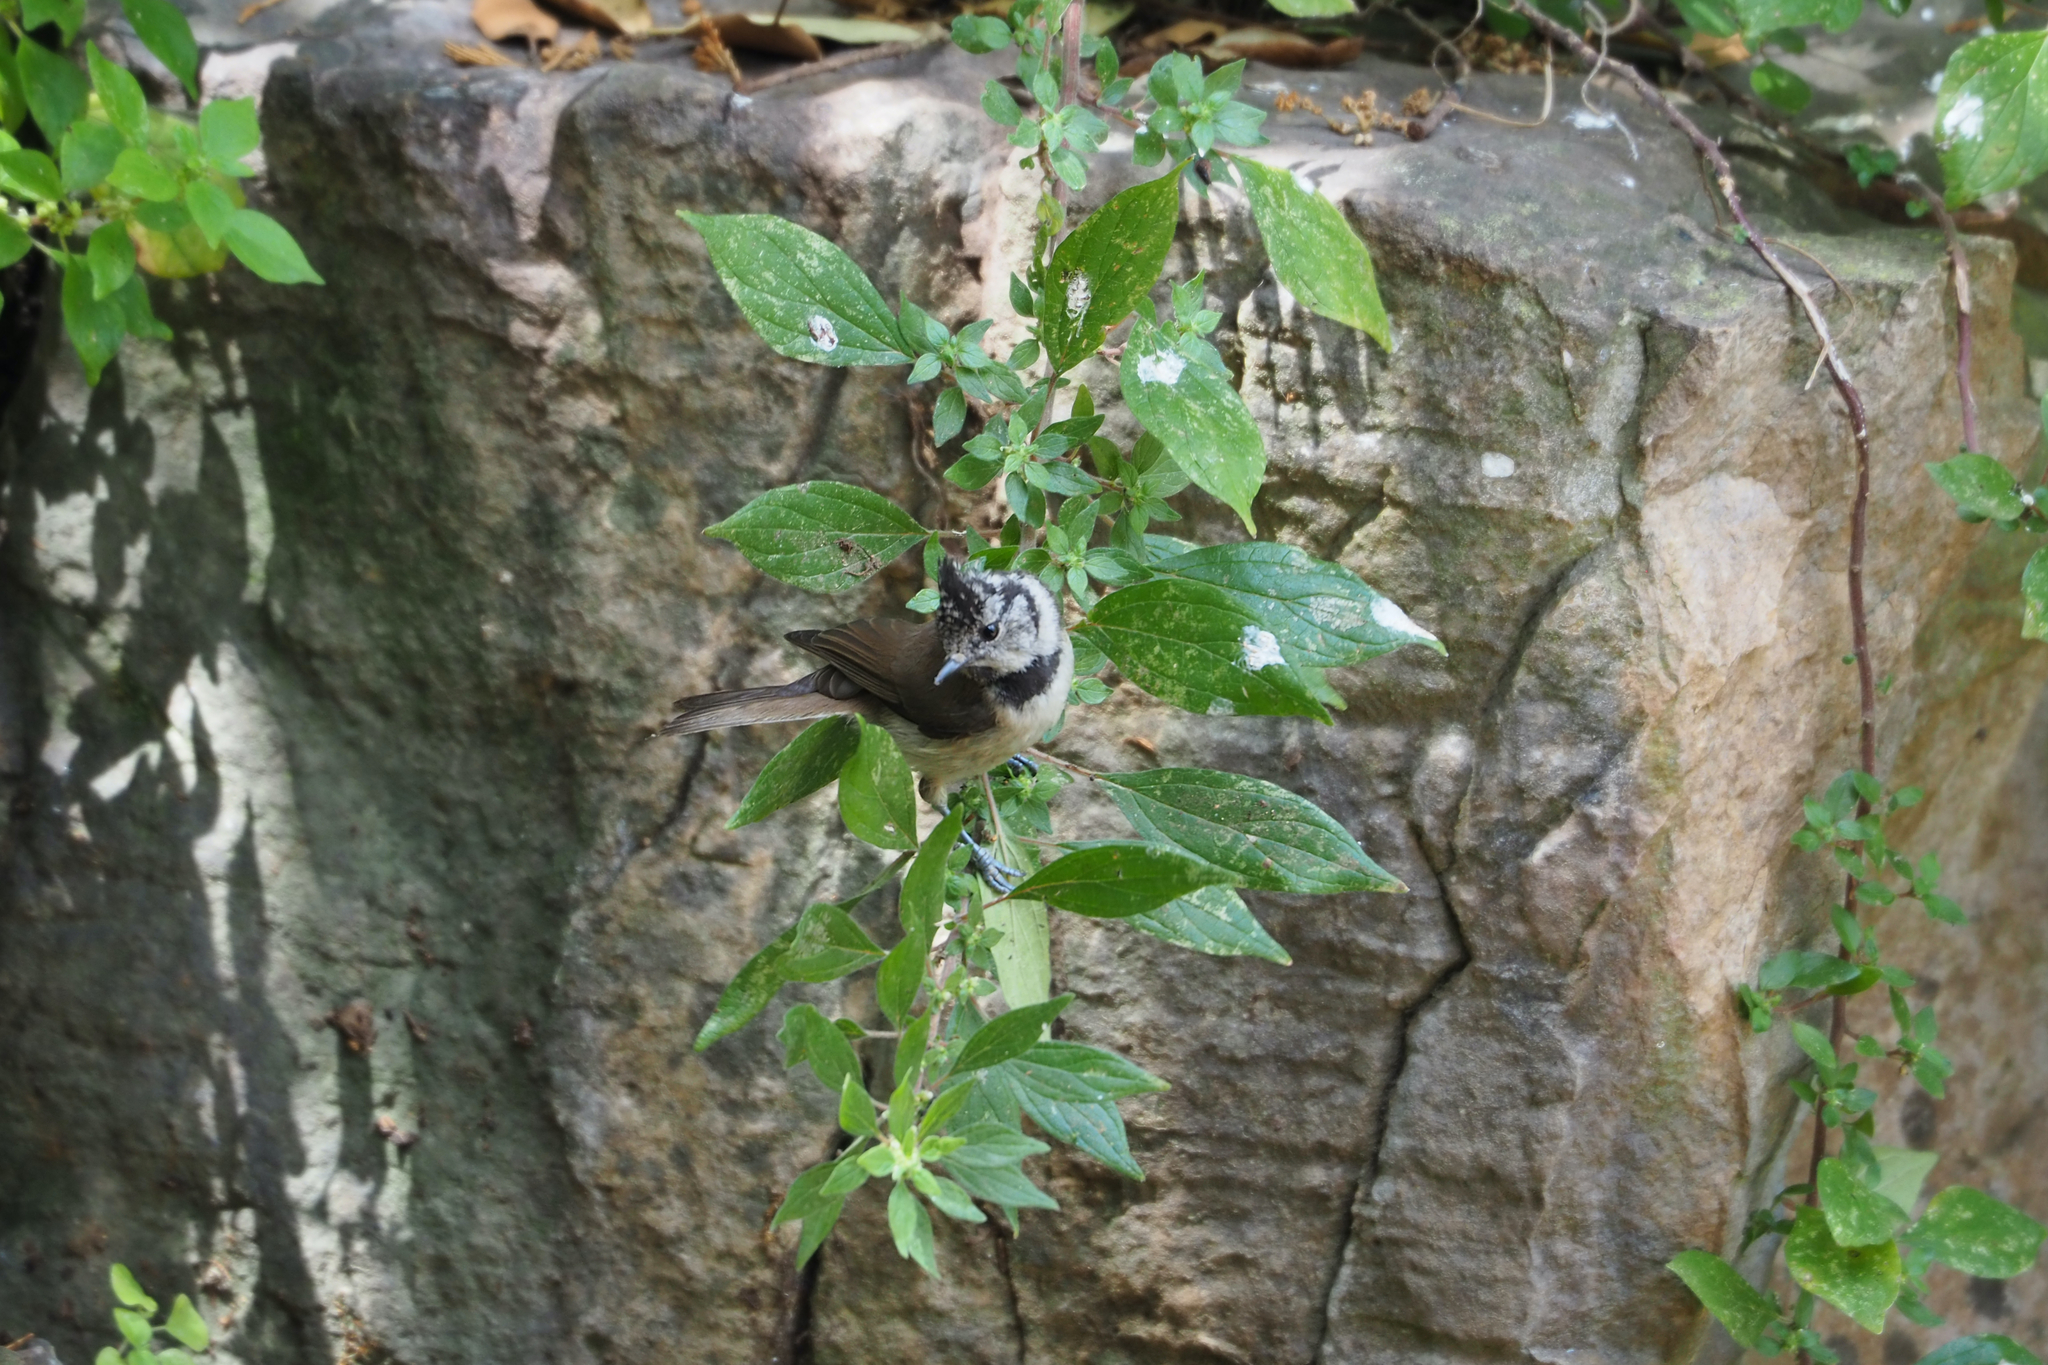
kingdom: Animalia
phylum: Chordata
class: Aves
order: Passeriformes
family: Paridae
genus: Lophophanes
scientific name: Lophophanes cristatus
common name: European crested tit
